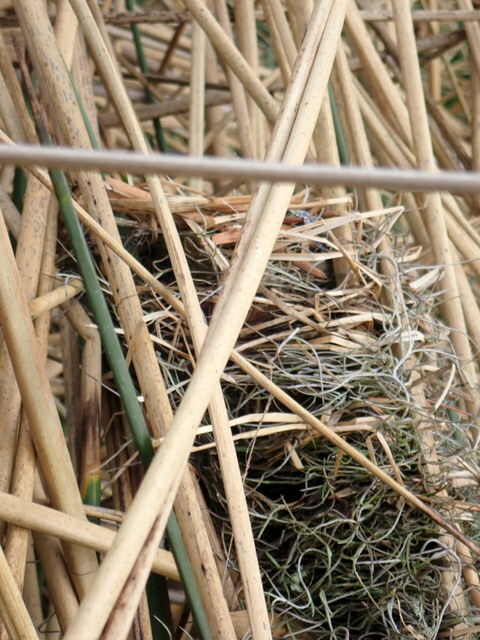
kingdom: Animalia
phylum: Chordata
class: Aves
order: Passeriformes
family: Icteridae
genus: Agelaius
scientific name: Agelaius phoeniceus
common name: Red-winged blackbird
